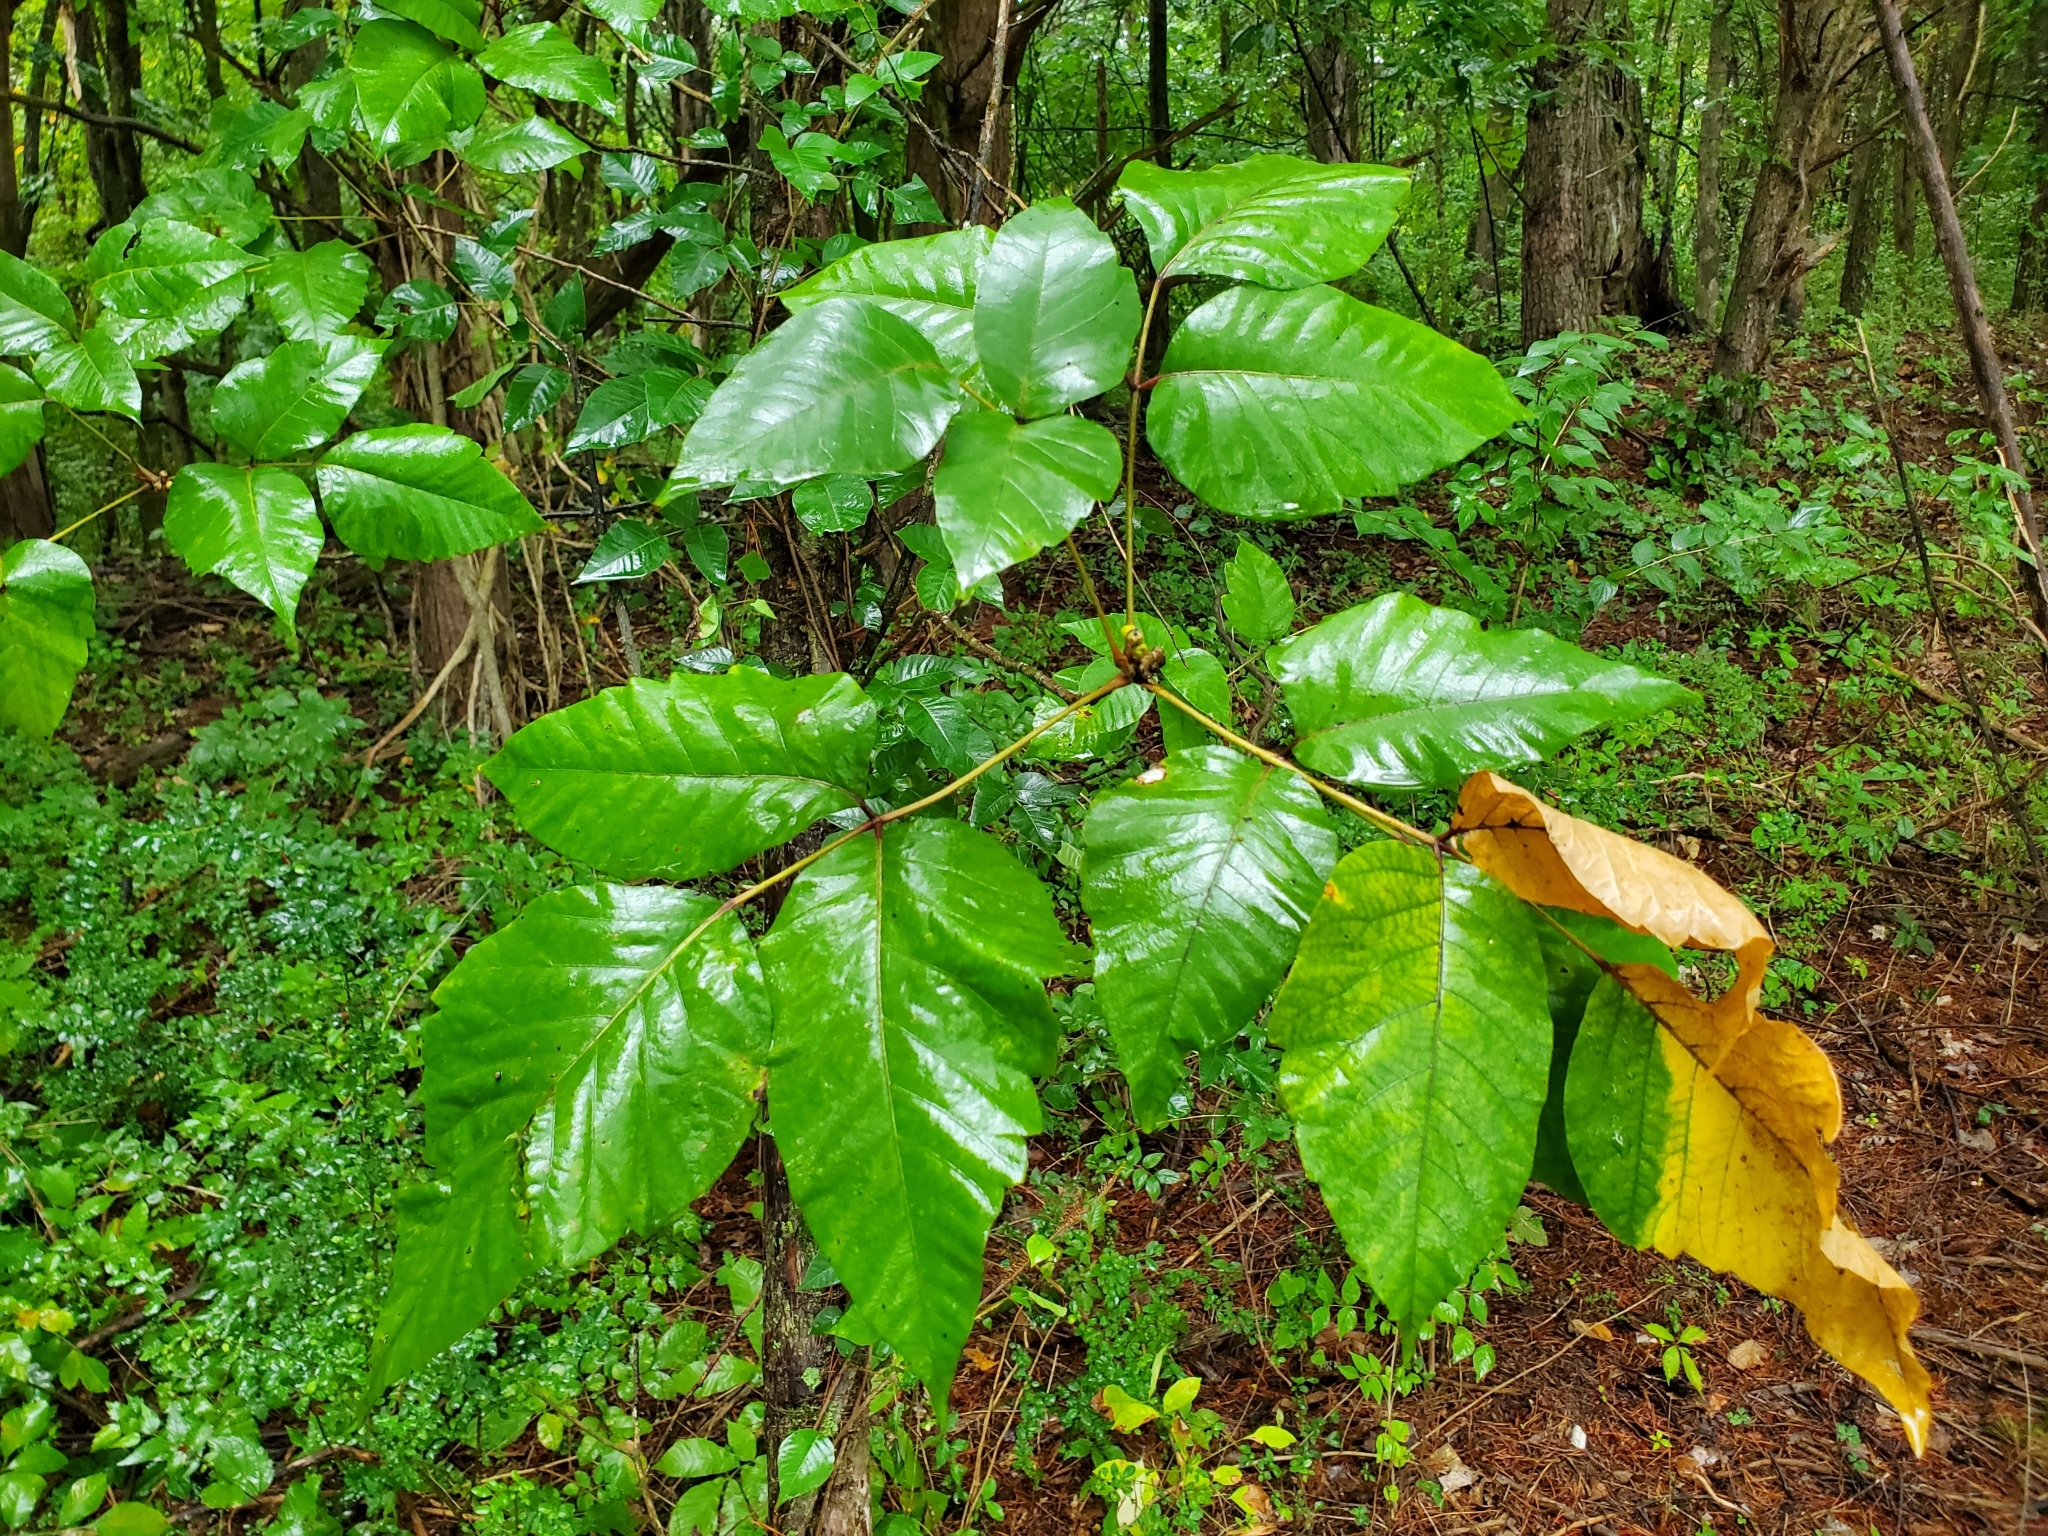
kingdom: Plantae
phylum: Tracheophyta
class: Magnoliopsida
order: Sapindales
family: Anacardiaceae
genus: Toxicodendron
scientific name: Toxicodendron radicans
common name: Poison ivy
